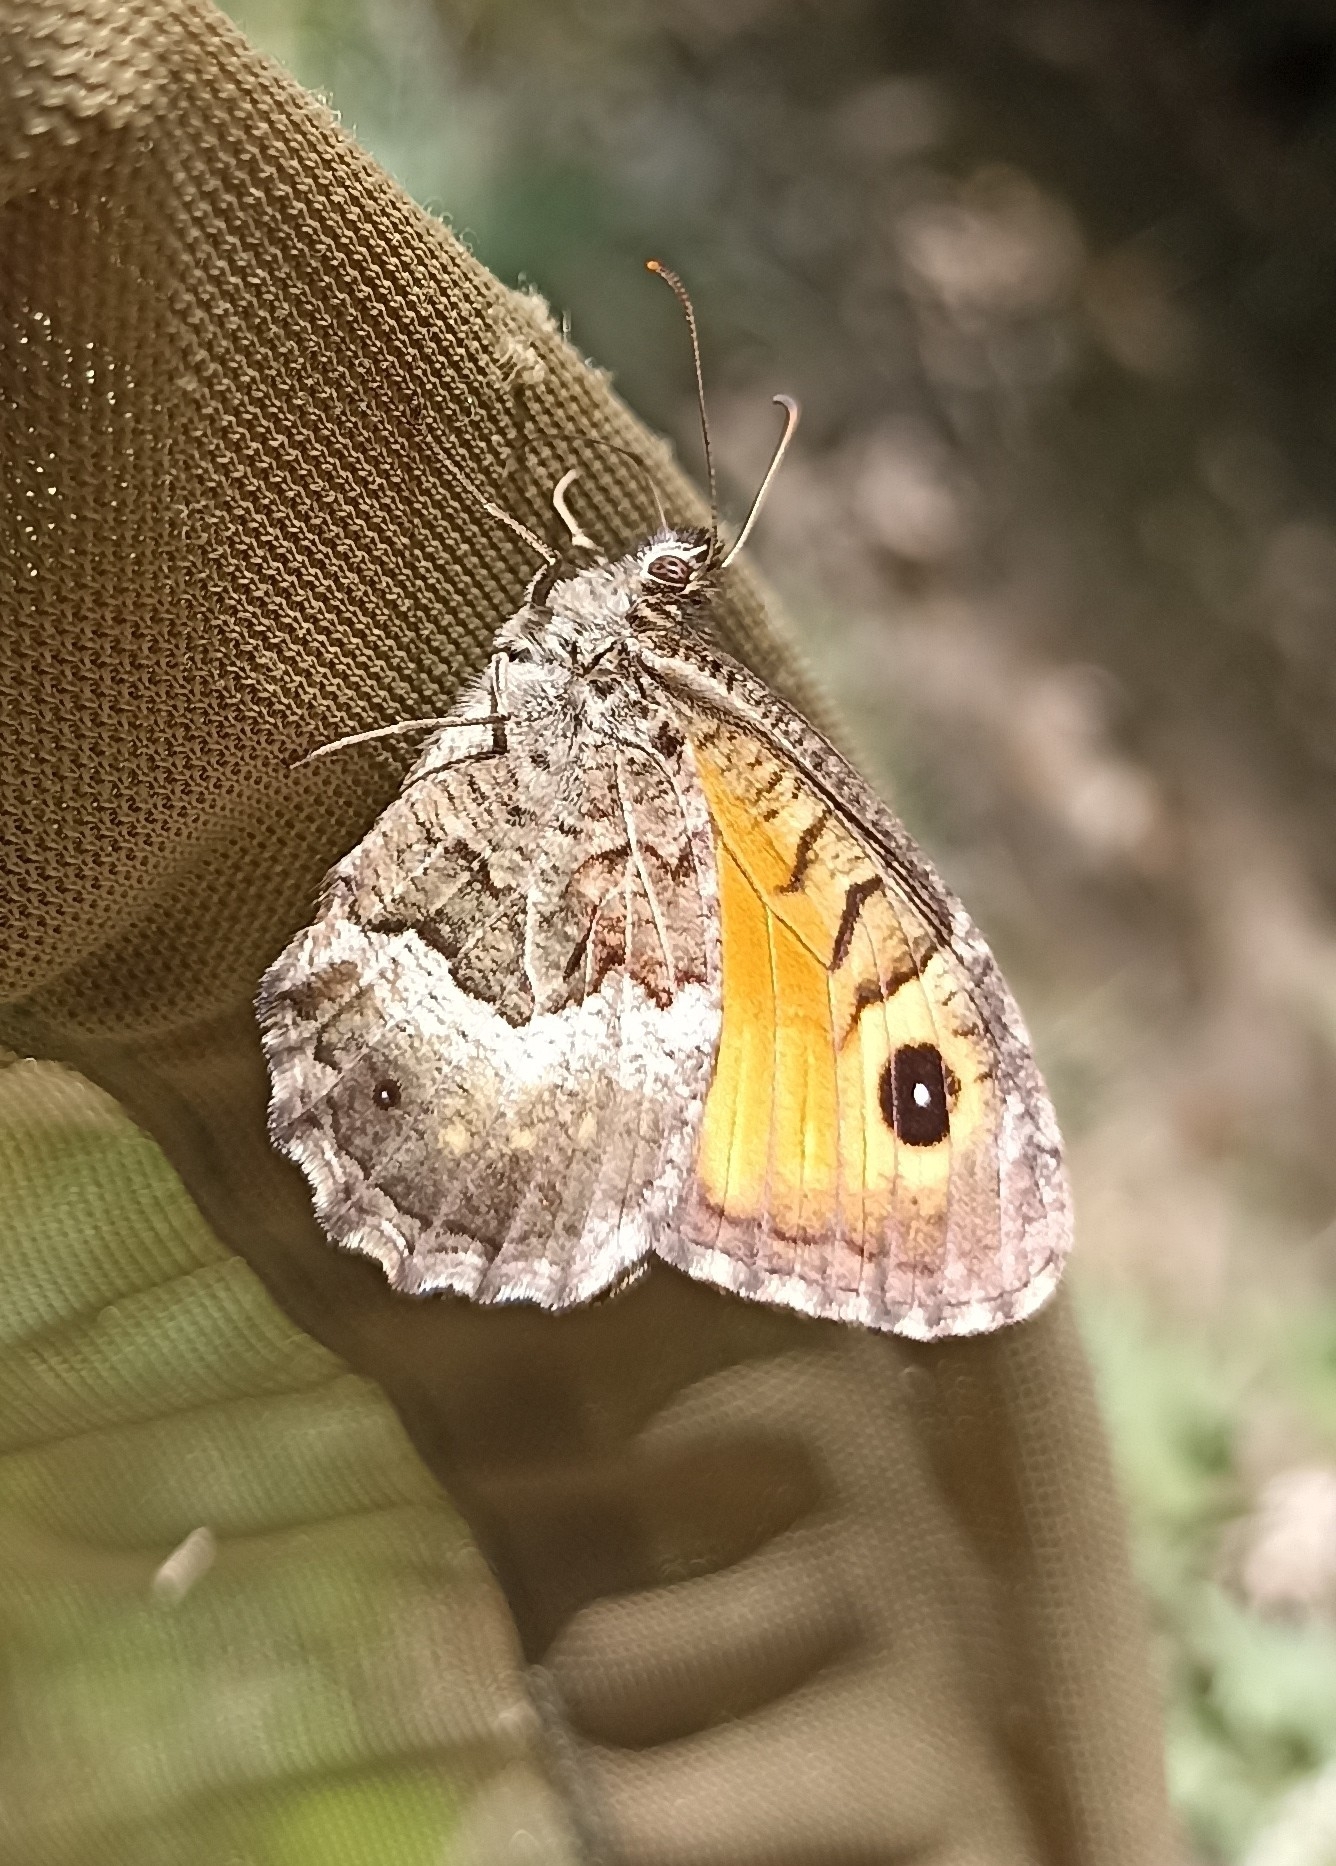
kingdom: Animalia
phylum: Arthropoda
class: Insecta
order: Lepidoptera
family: Nymphalidae
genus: Arethusana
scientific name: Arethusana arethusa
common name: False grayling
